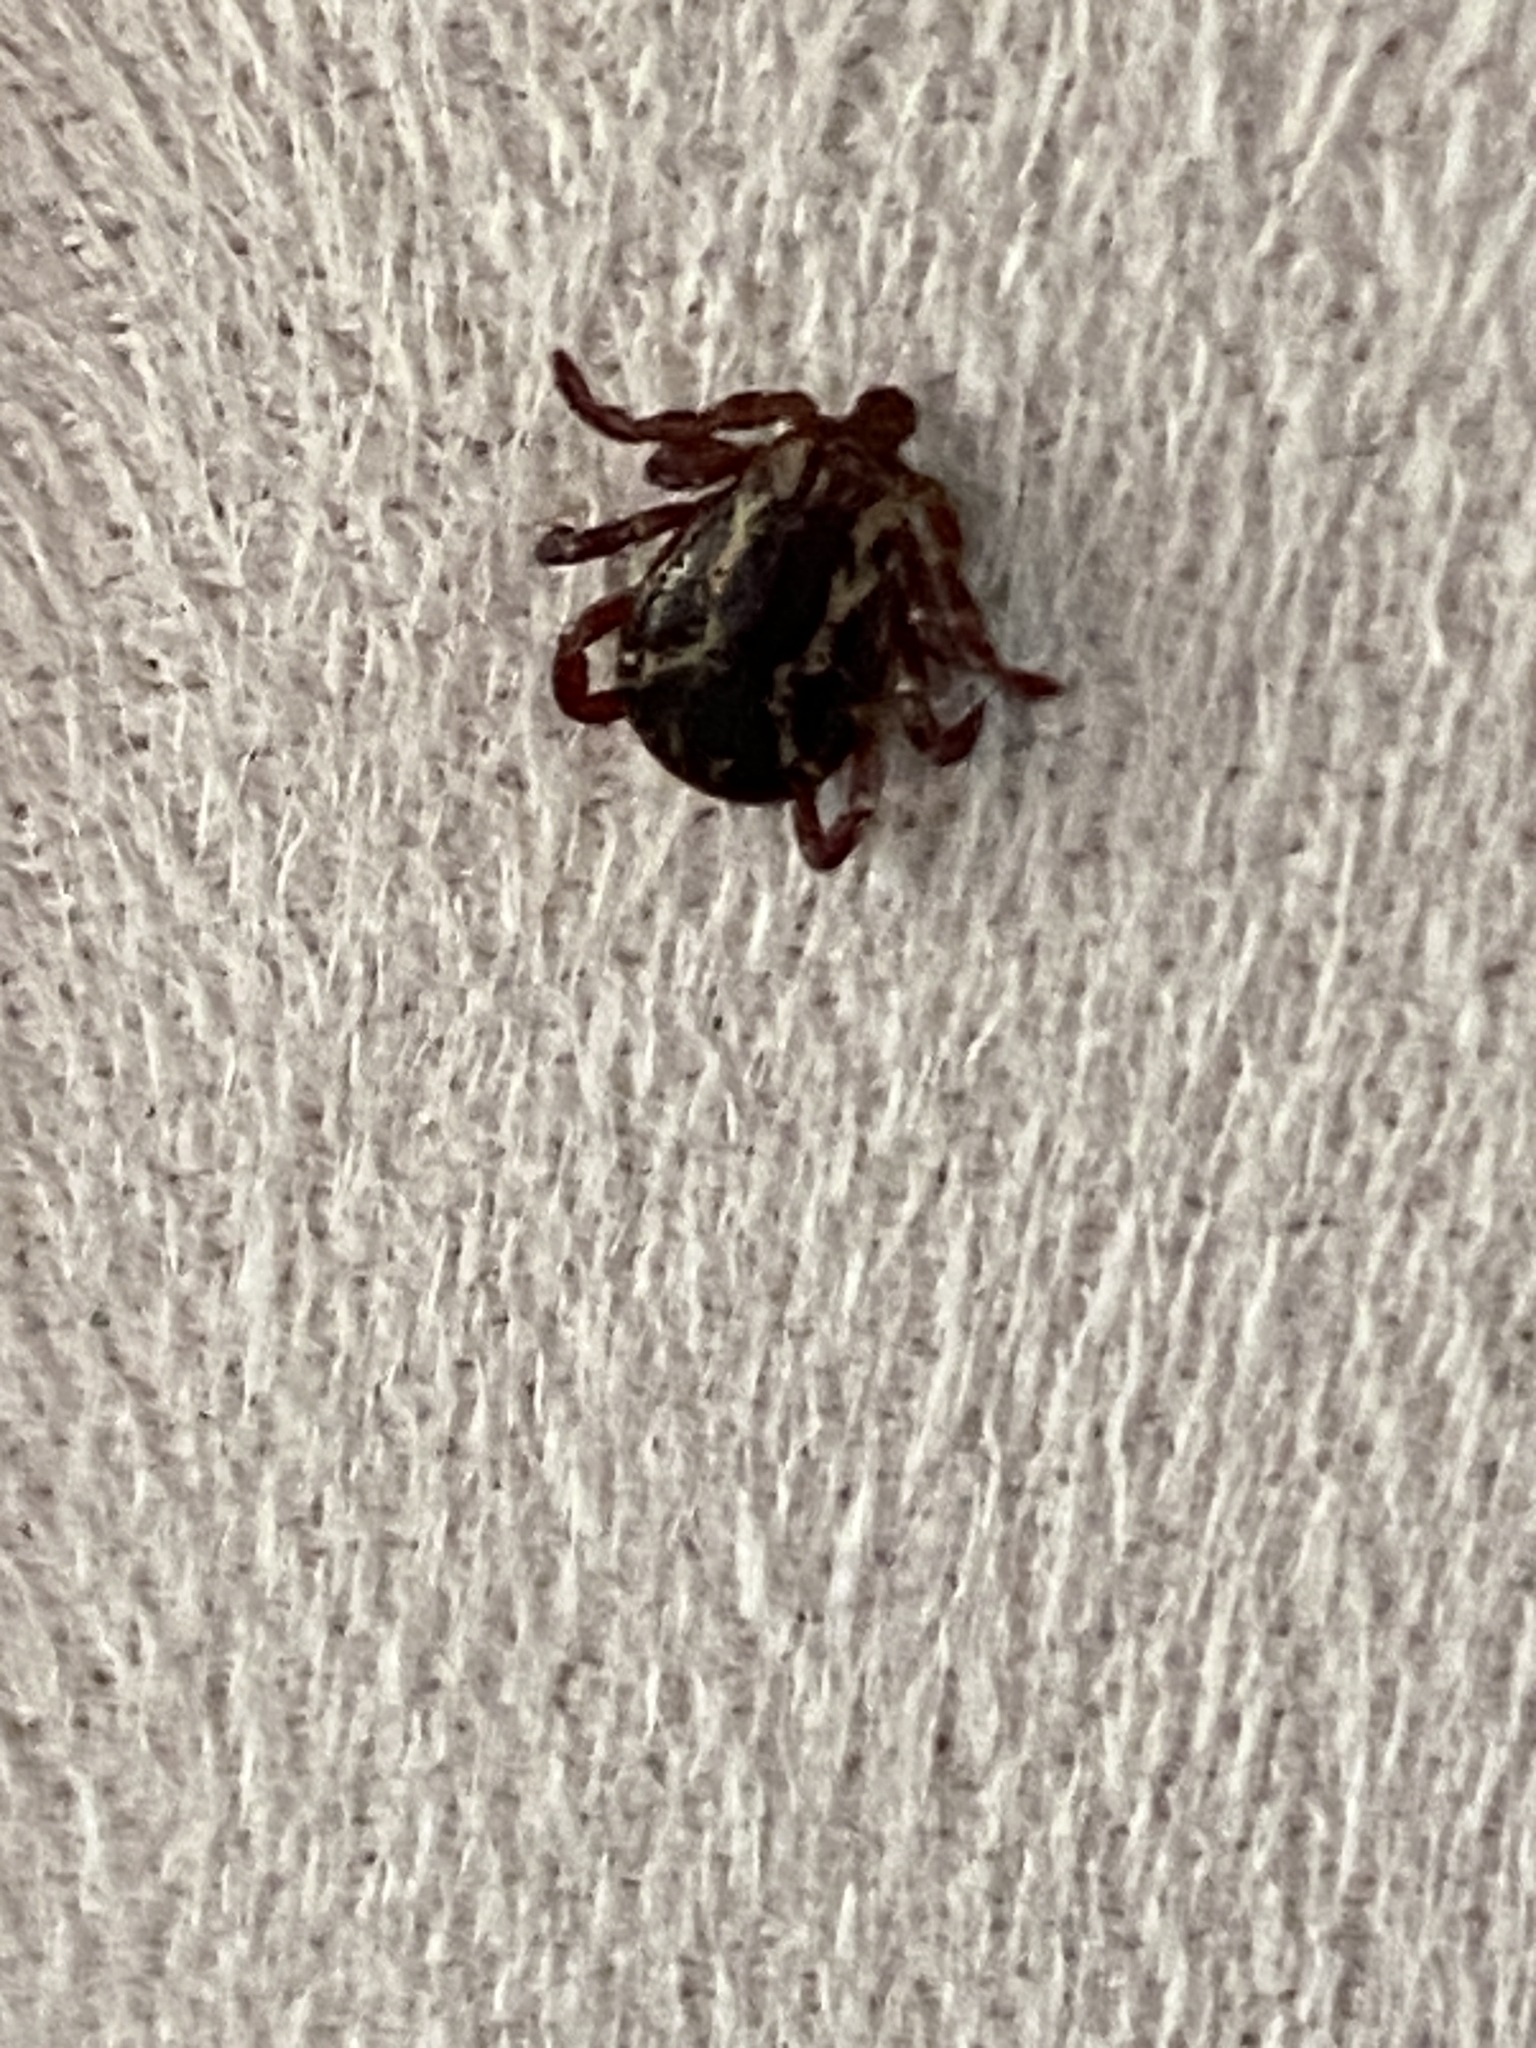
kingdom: Animalia
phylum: Arthropoda
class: Arachnida
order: Ixodida
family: Ixodidae
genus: Dermacentor
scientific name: Dermacentor variabilis
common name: American dog tick
